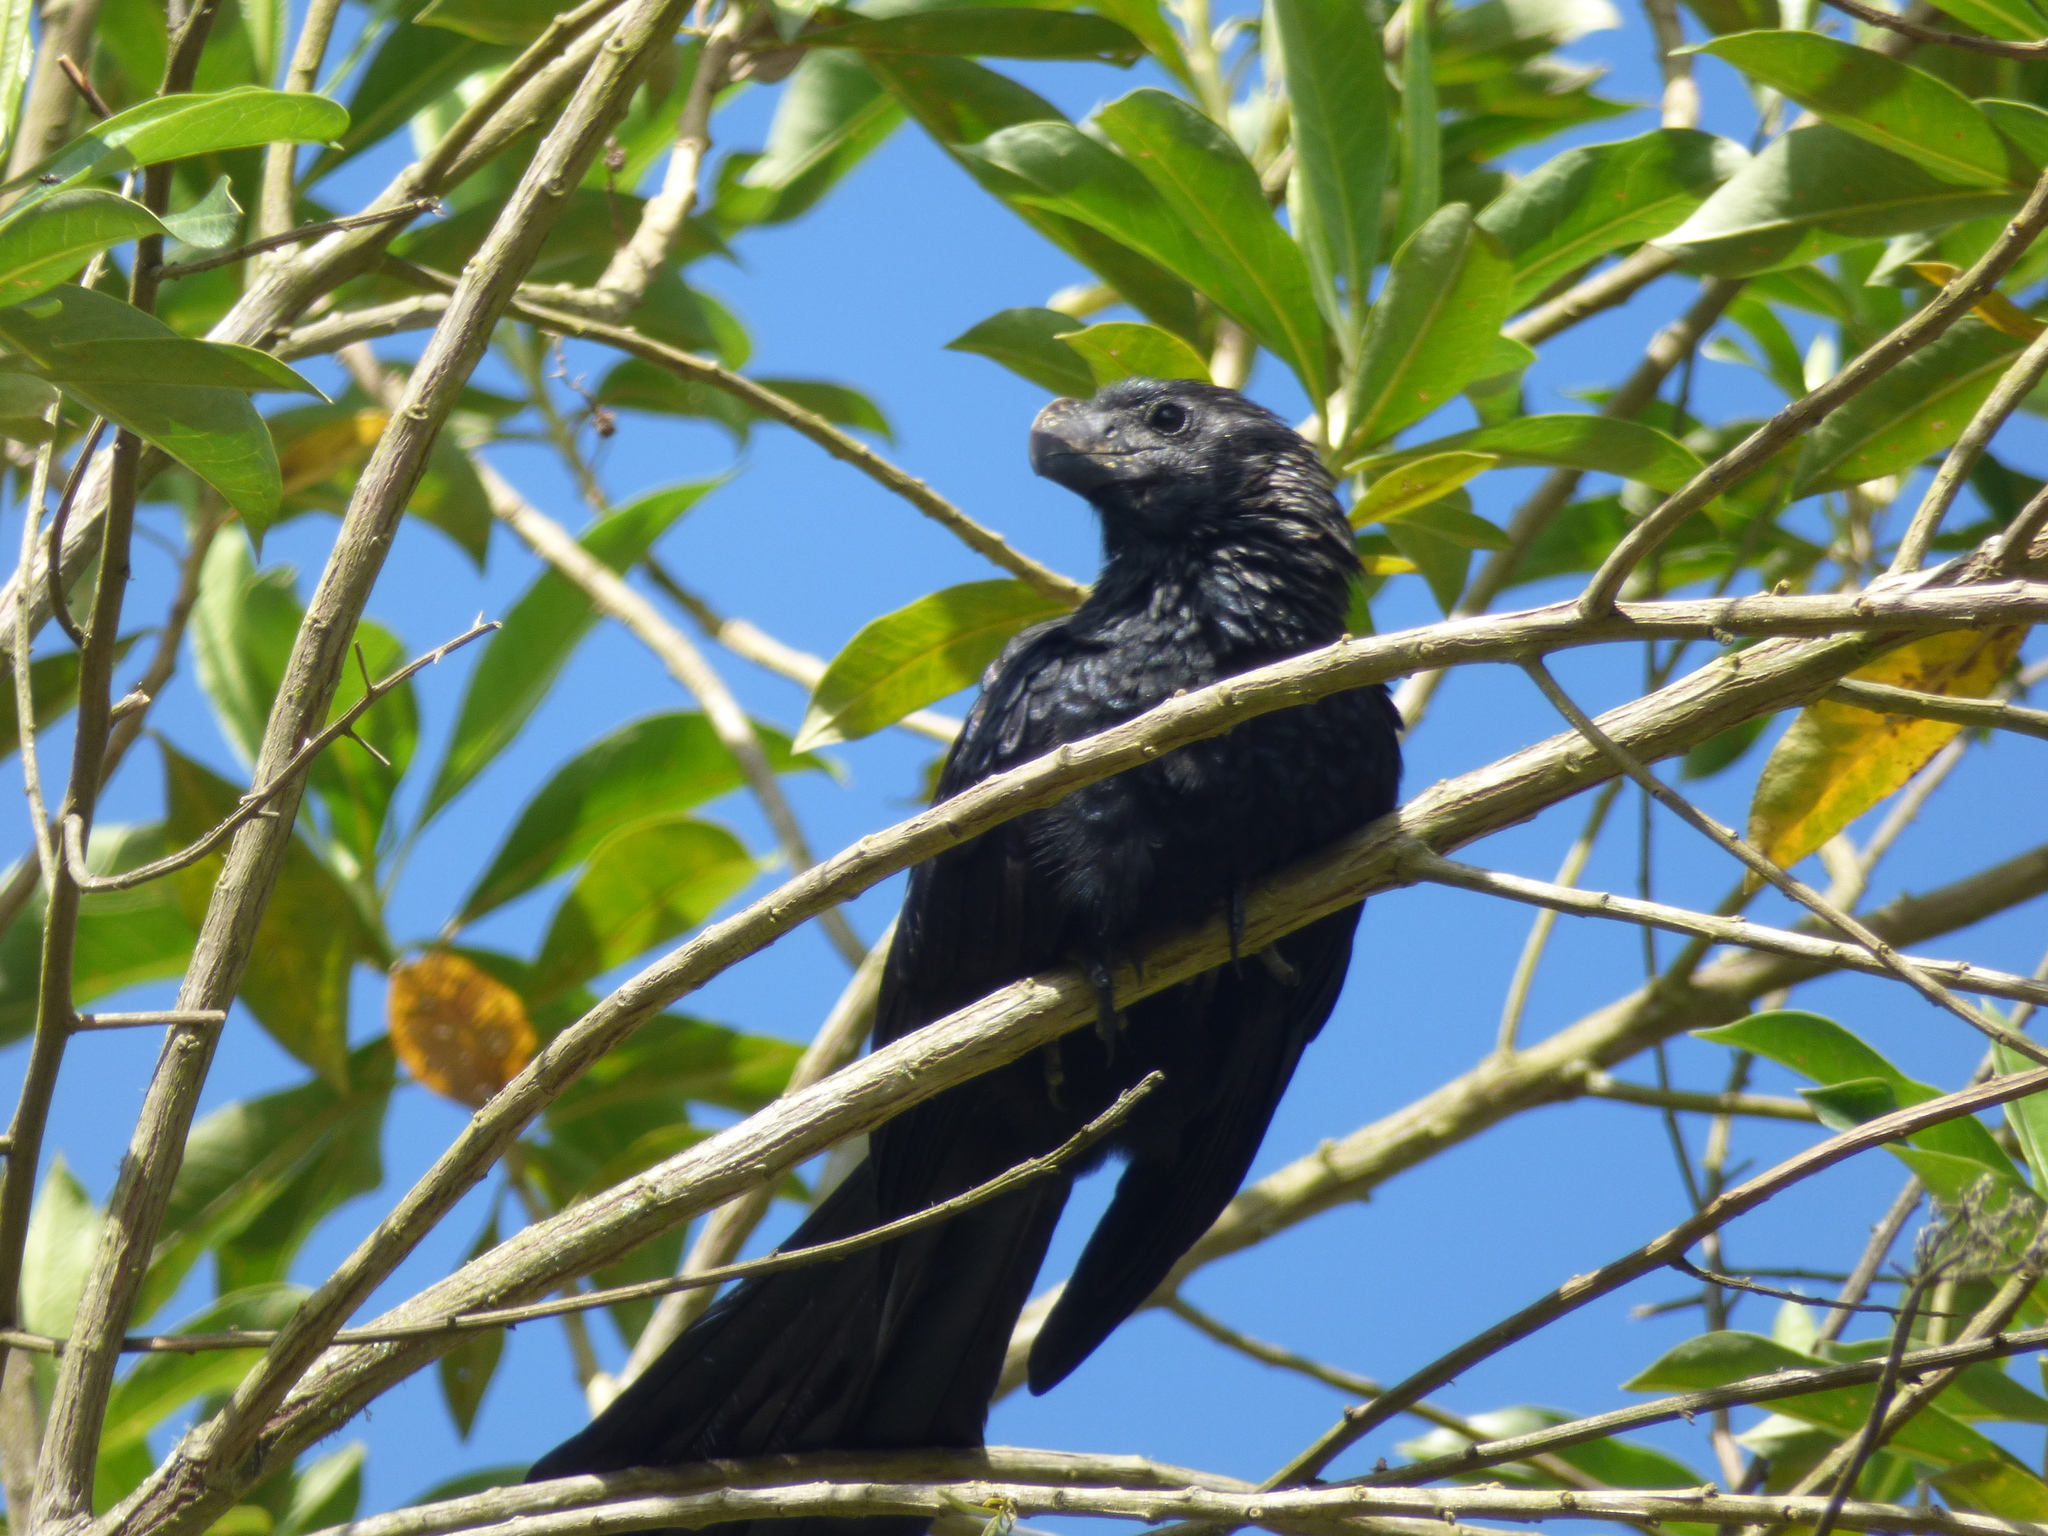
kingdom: Animalia
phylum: Chordata
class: Aves
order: Cuculiformes
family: Cuculidae
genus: Crotophaga
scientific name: Crotophaga ani
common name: Smooth-billed ani
